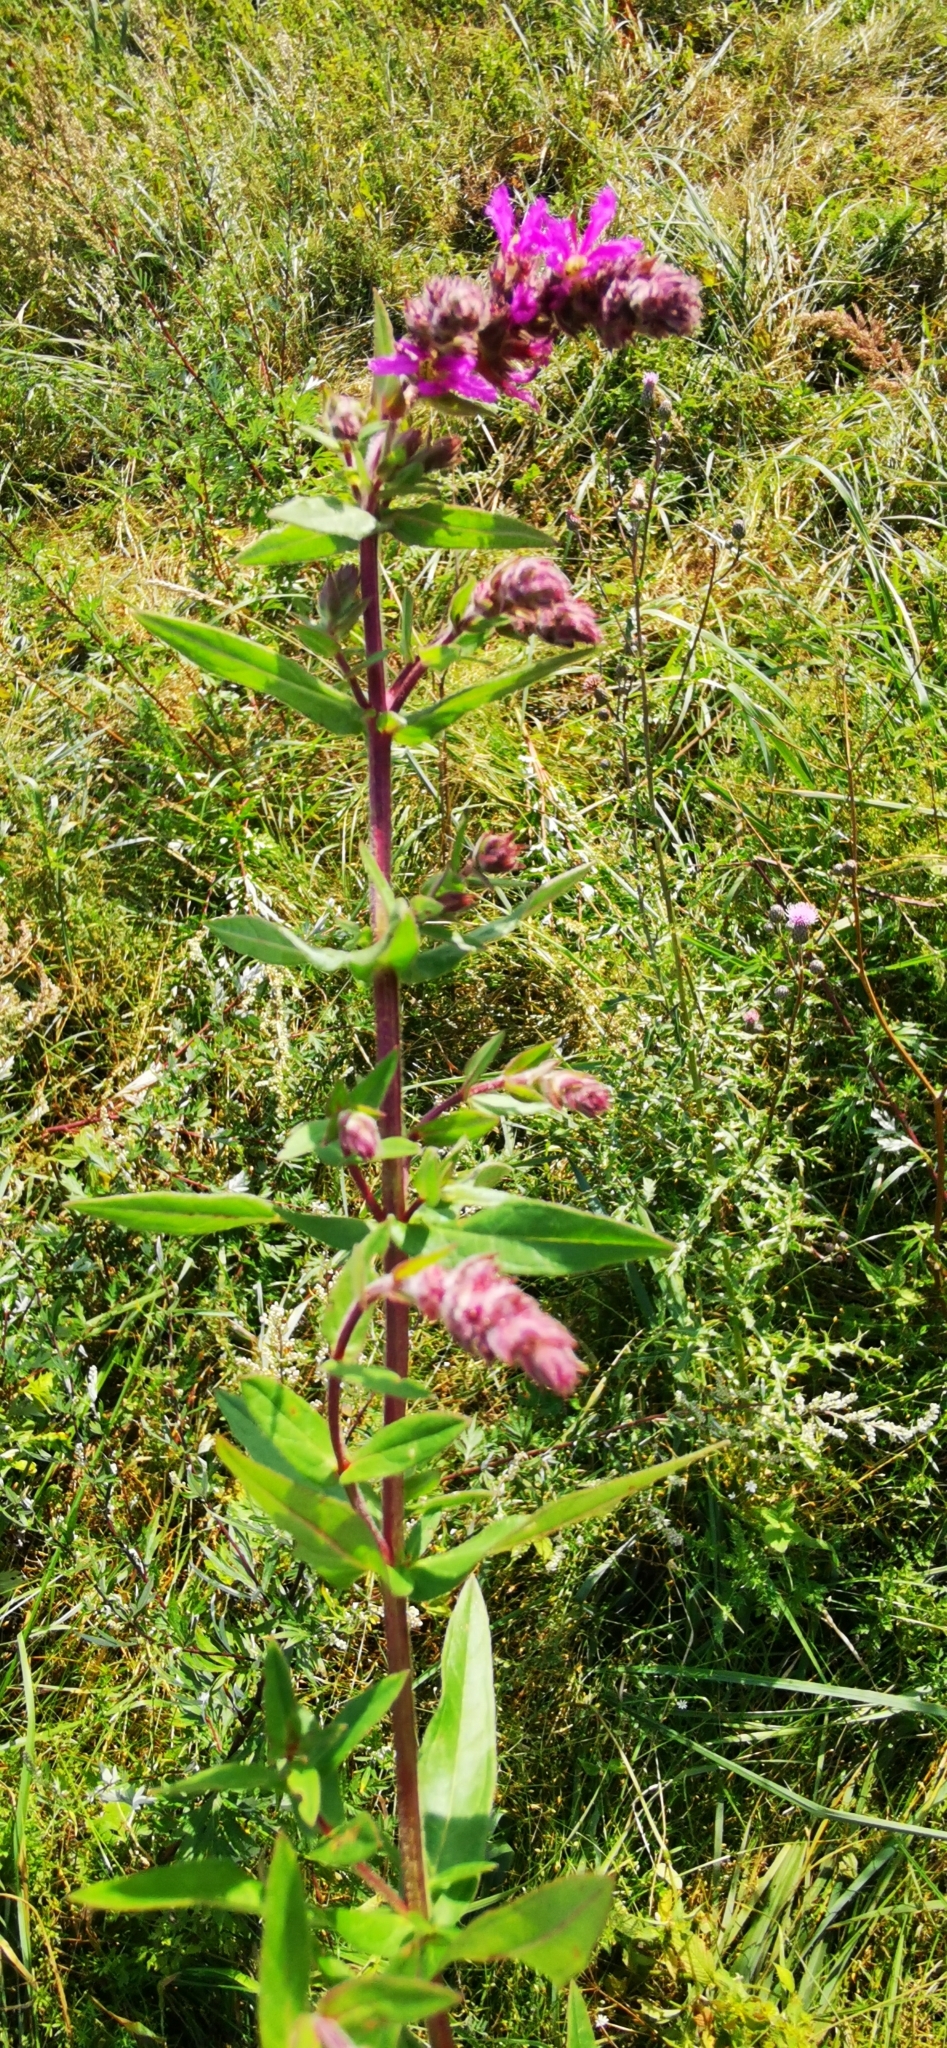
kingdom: Plantae
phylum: Tracheophyta
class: Magnoliopsida
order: Myrtales
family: Lythraceae
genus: Lythrum
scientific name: Lythrum salicaria
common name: Purple loosestrife
